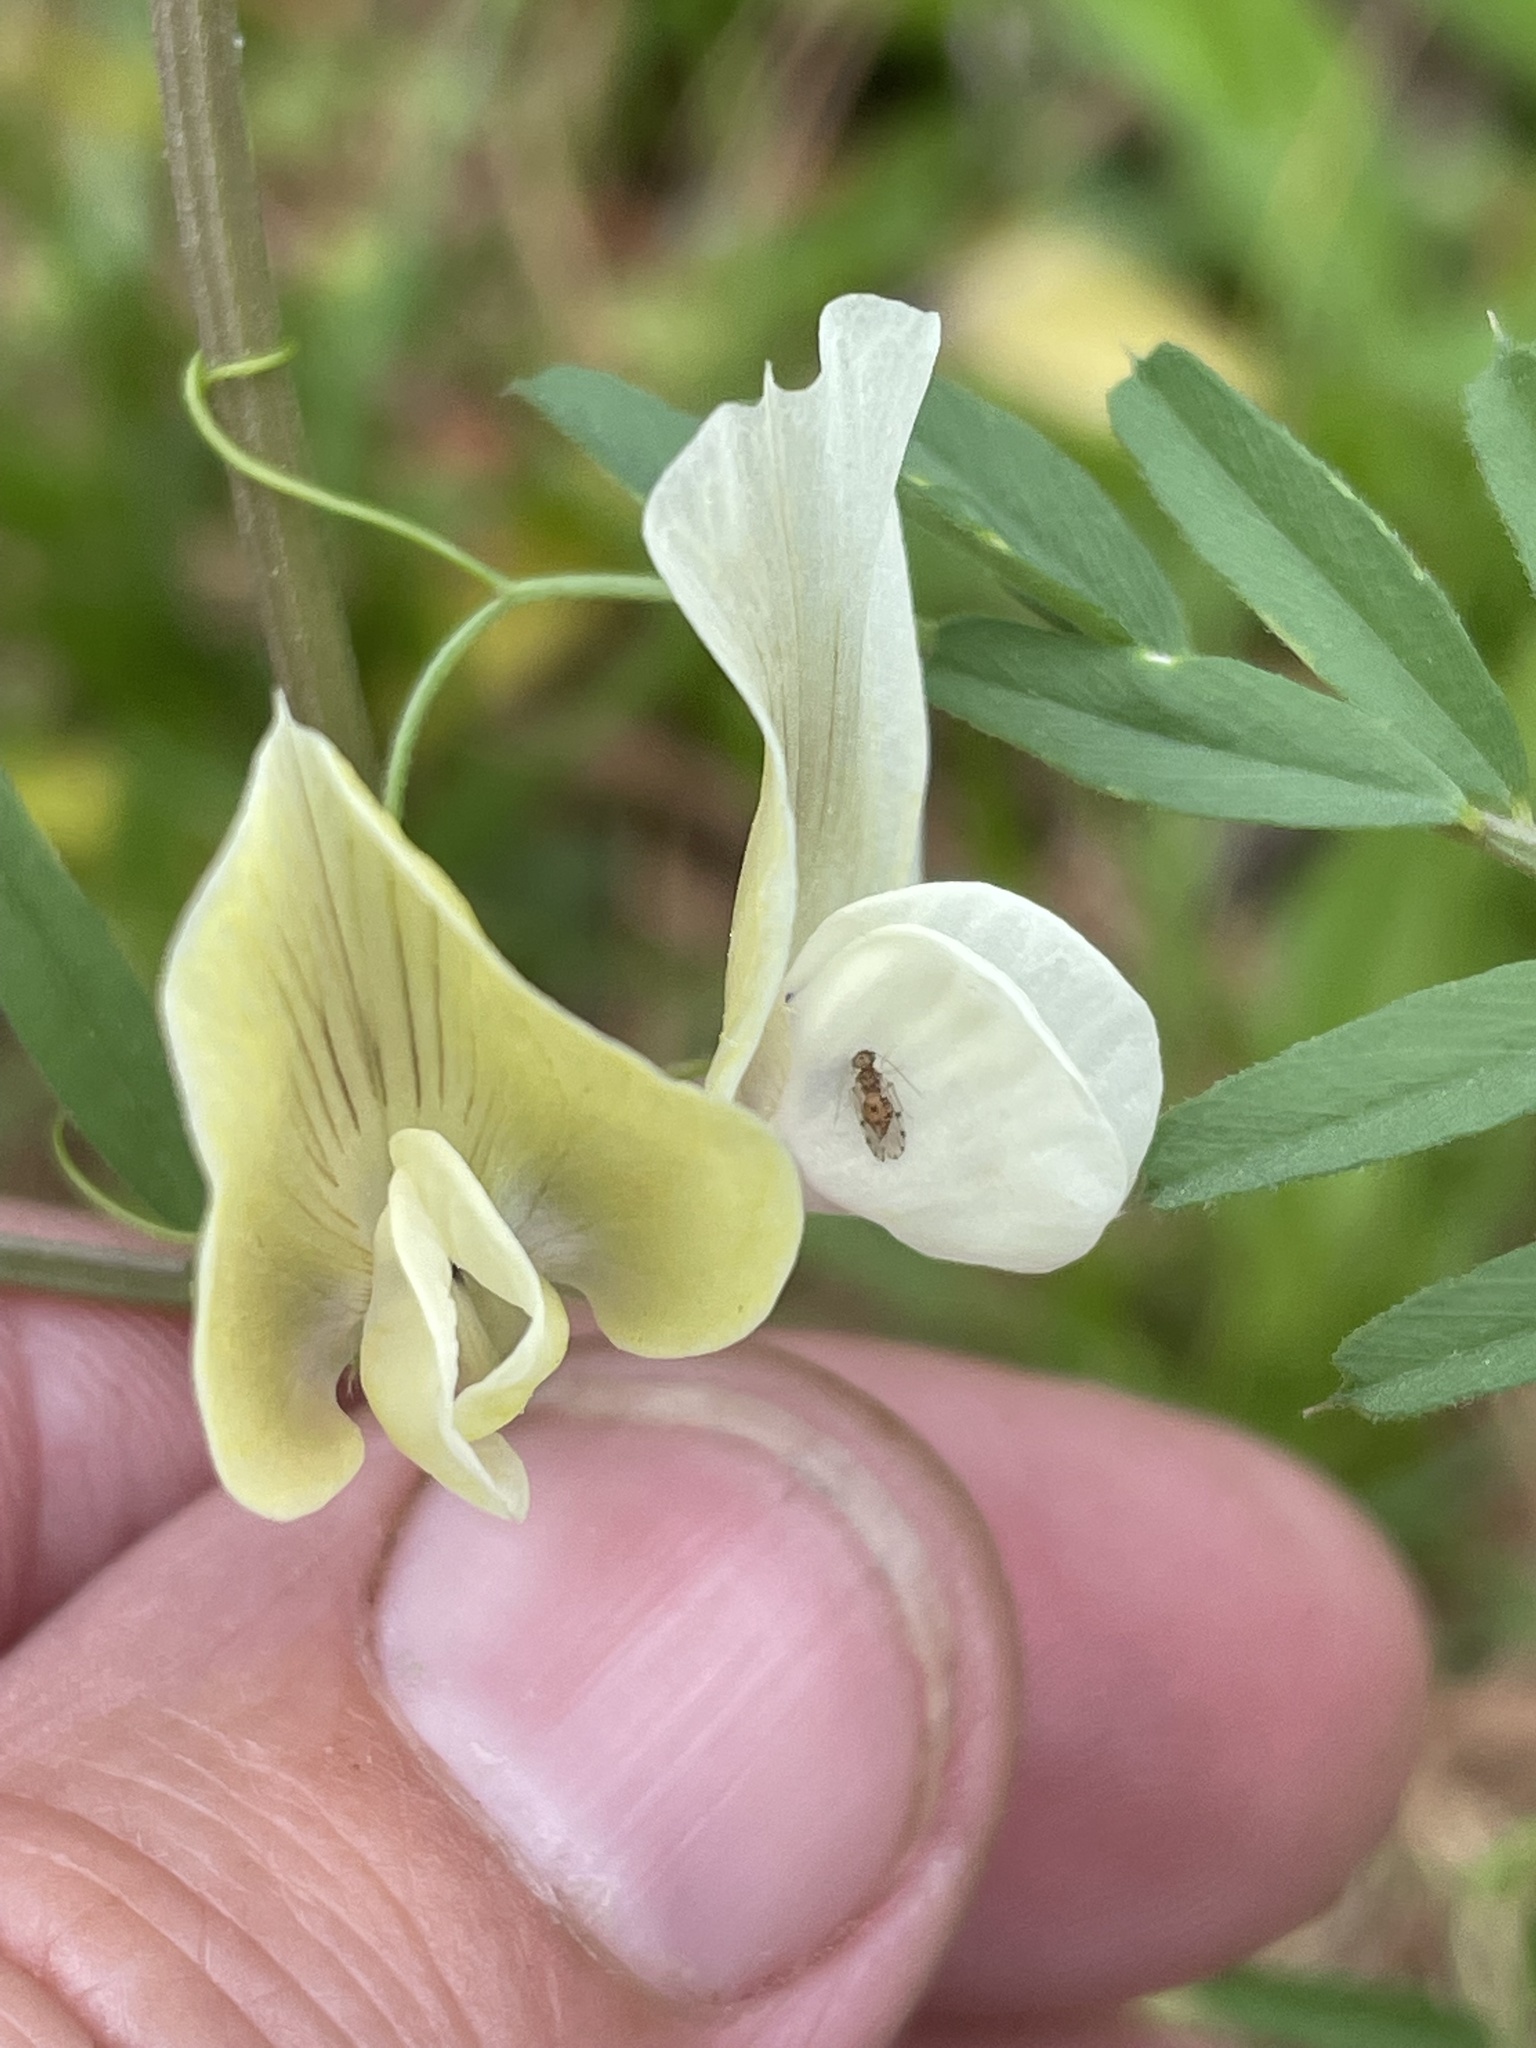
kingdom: Plantae
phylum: Tracheophyta
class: Magnoliopsida
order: Fabales
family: Fabaceae
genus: Vicia
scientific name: Vicia grandiflora
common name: Large yellow vetch
